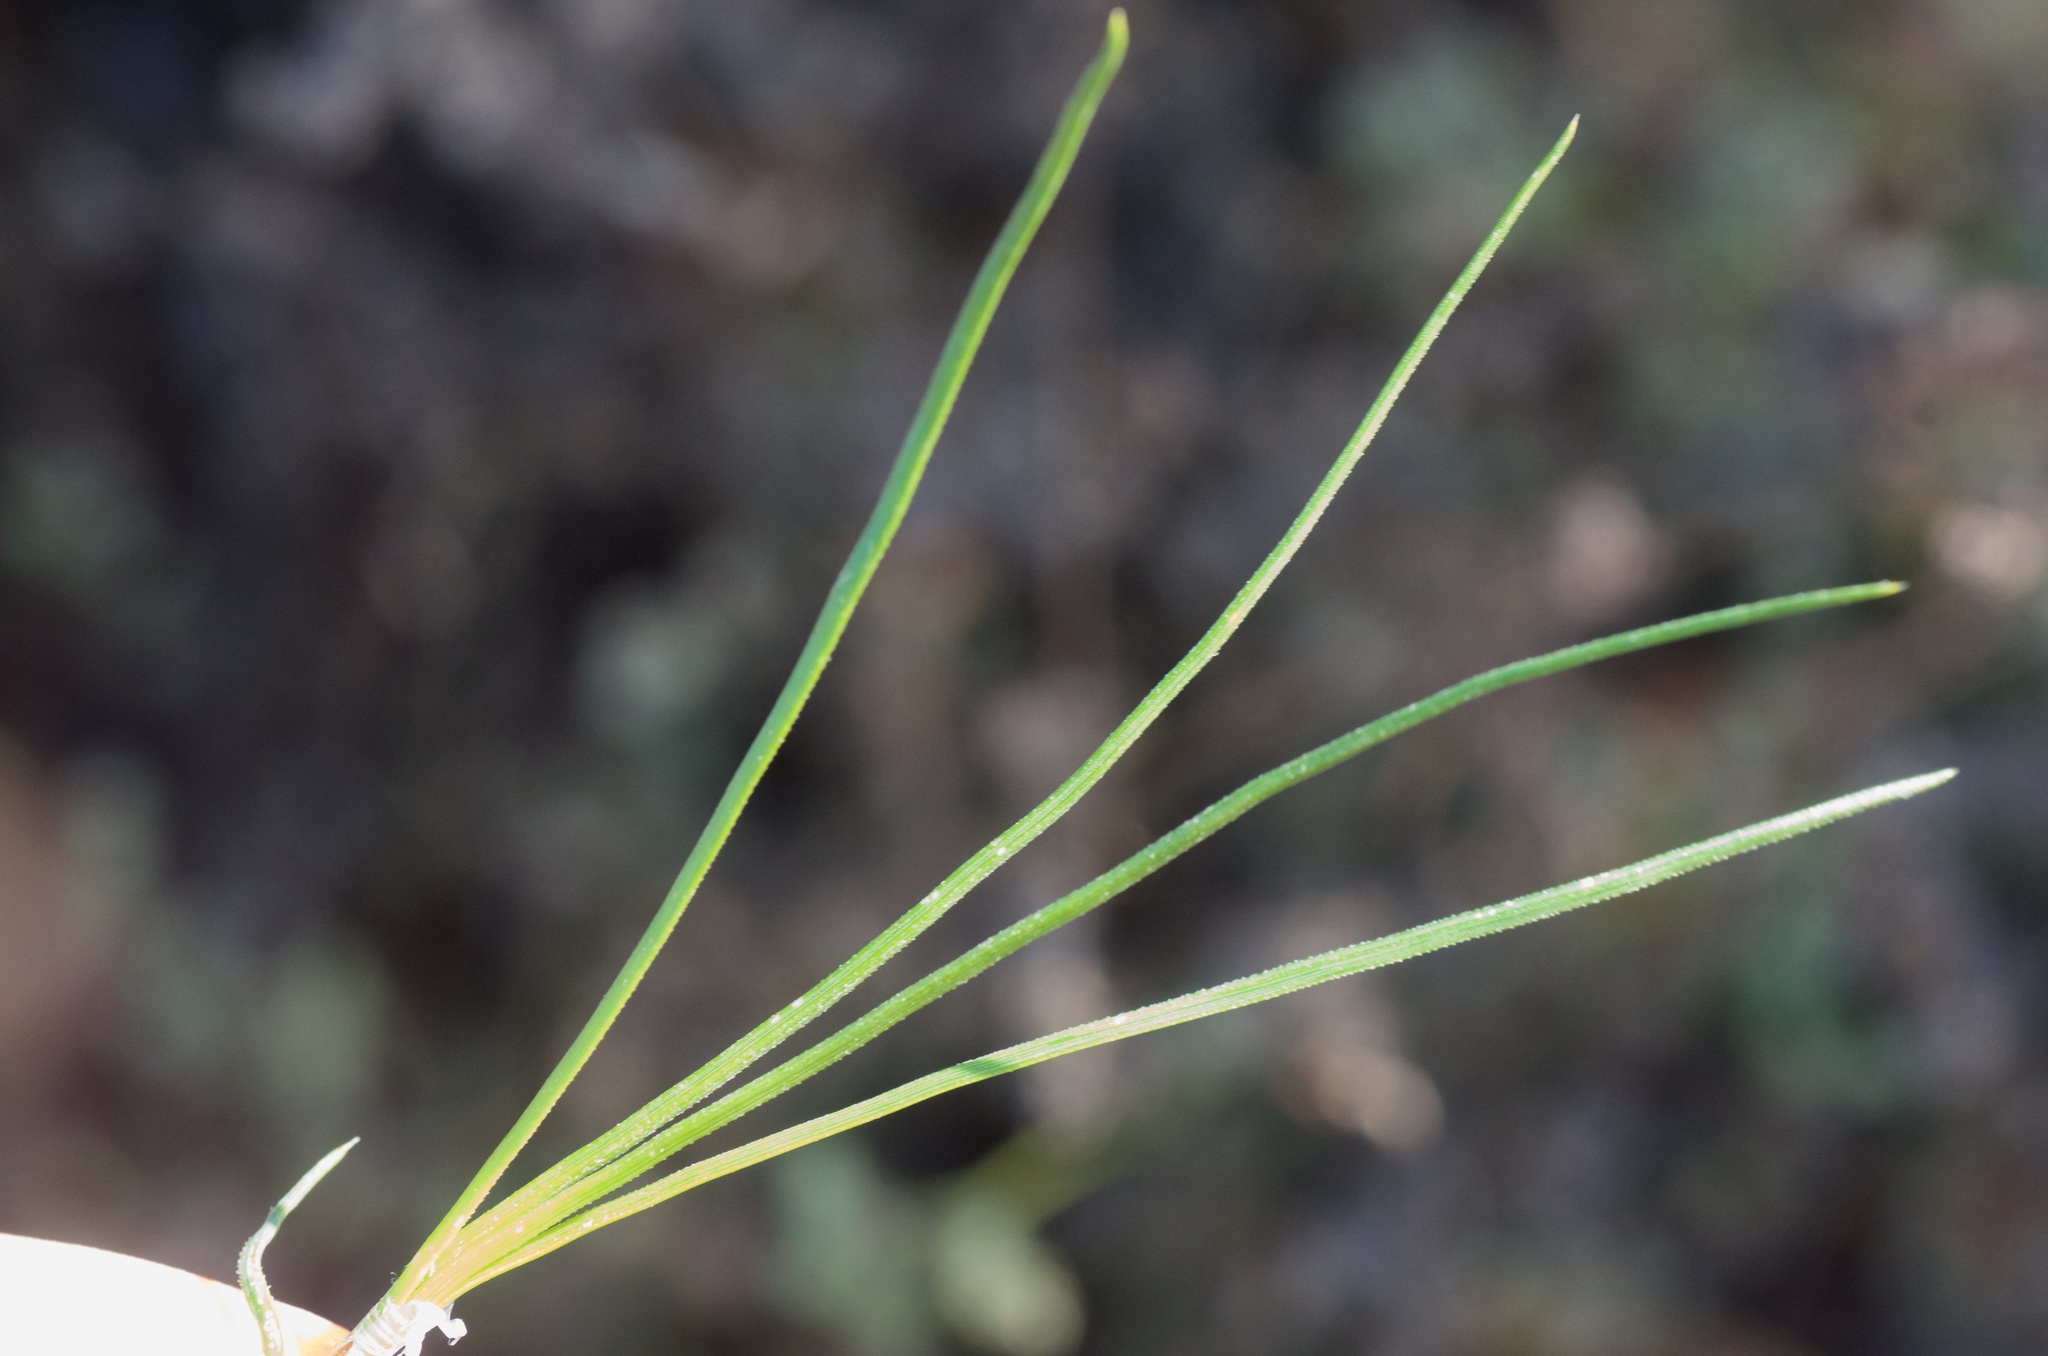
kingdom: Plantae
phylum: Tracheophyta
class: Pinopsida
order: Pinales
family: Pinaceae
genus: Pinus
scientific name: Pinus radiata
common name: Monterey pine
